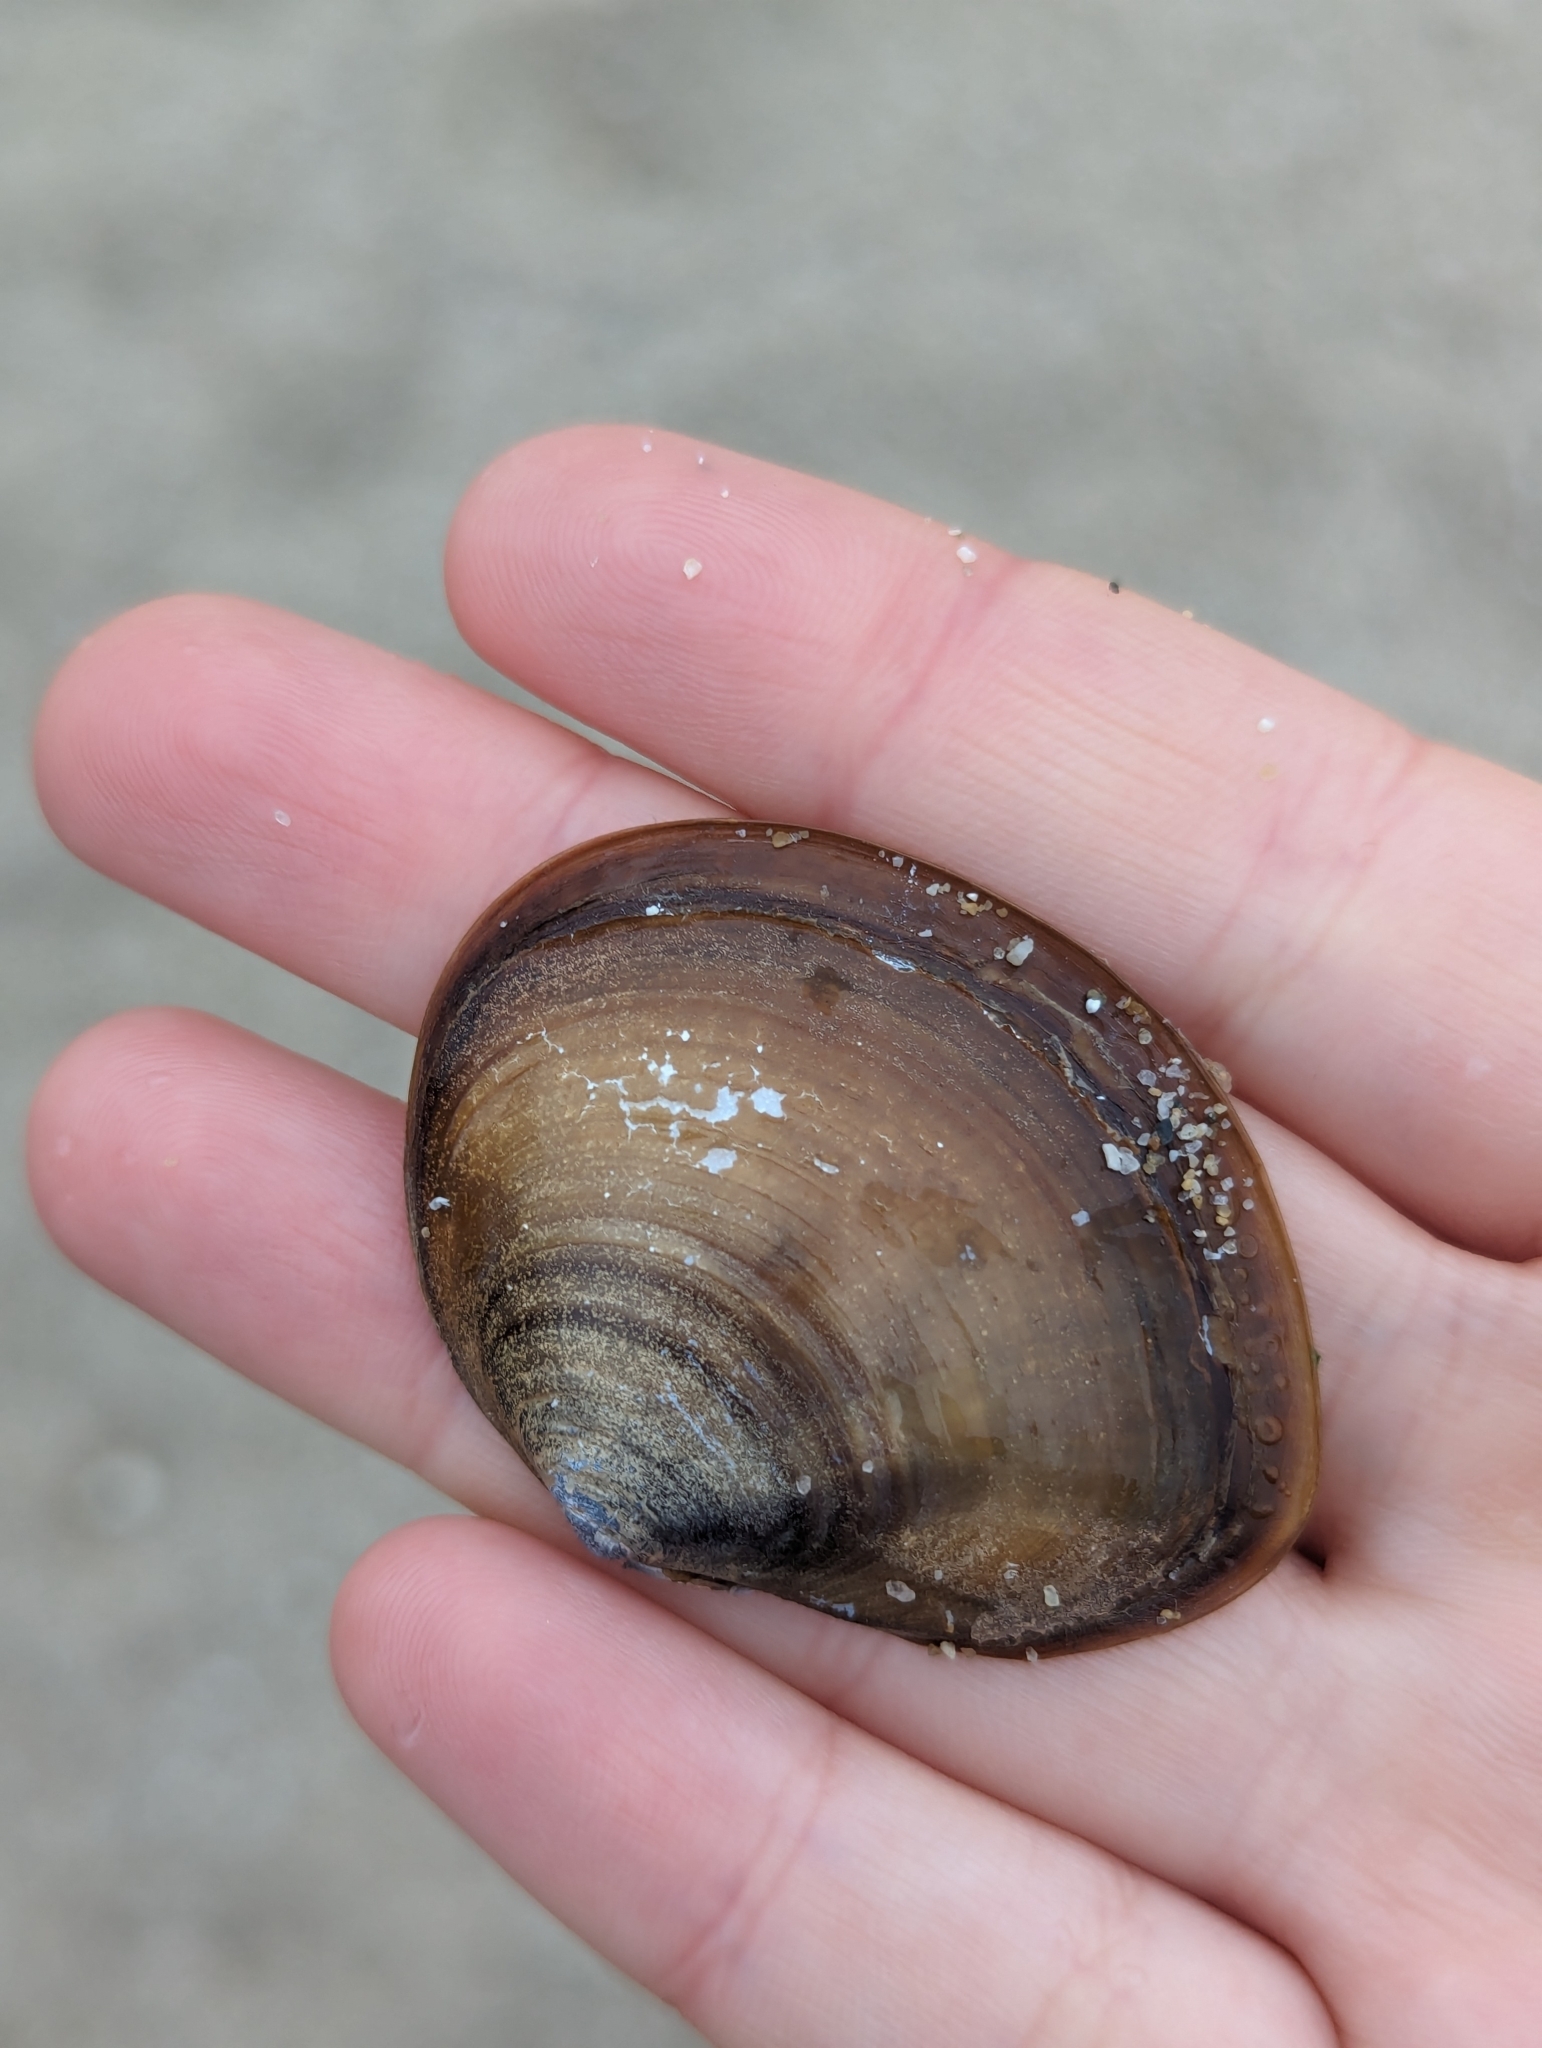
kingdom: Animalia
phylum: Mollusca
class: Bivalvia
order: Cardiida
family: Psammobiidae
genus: Nuttallia
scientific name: Nuttallia japonica
